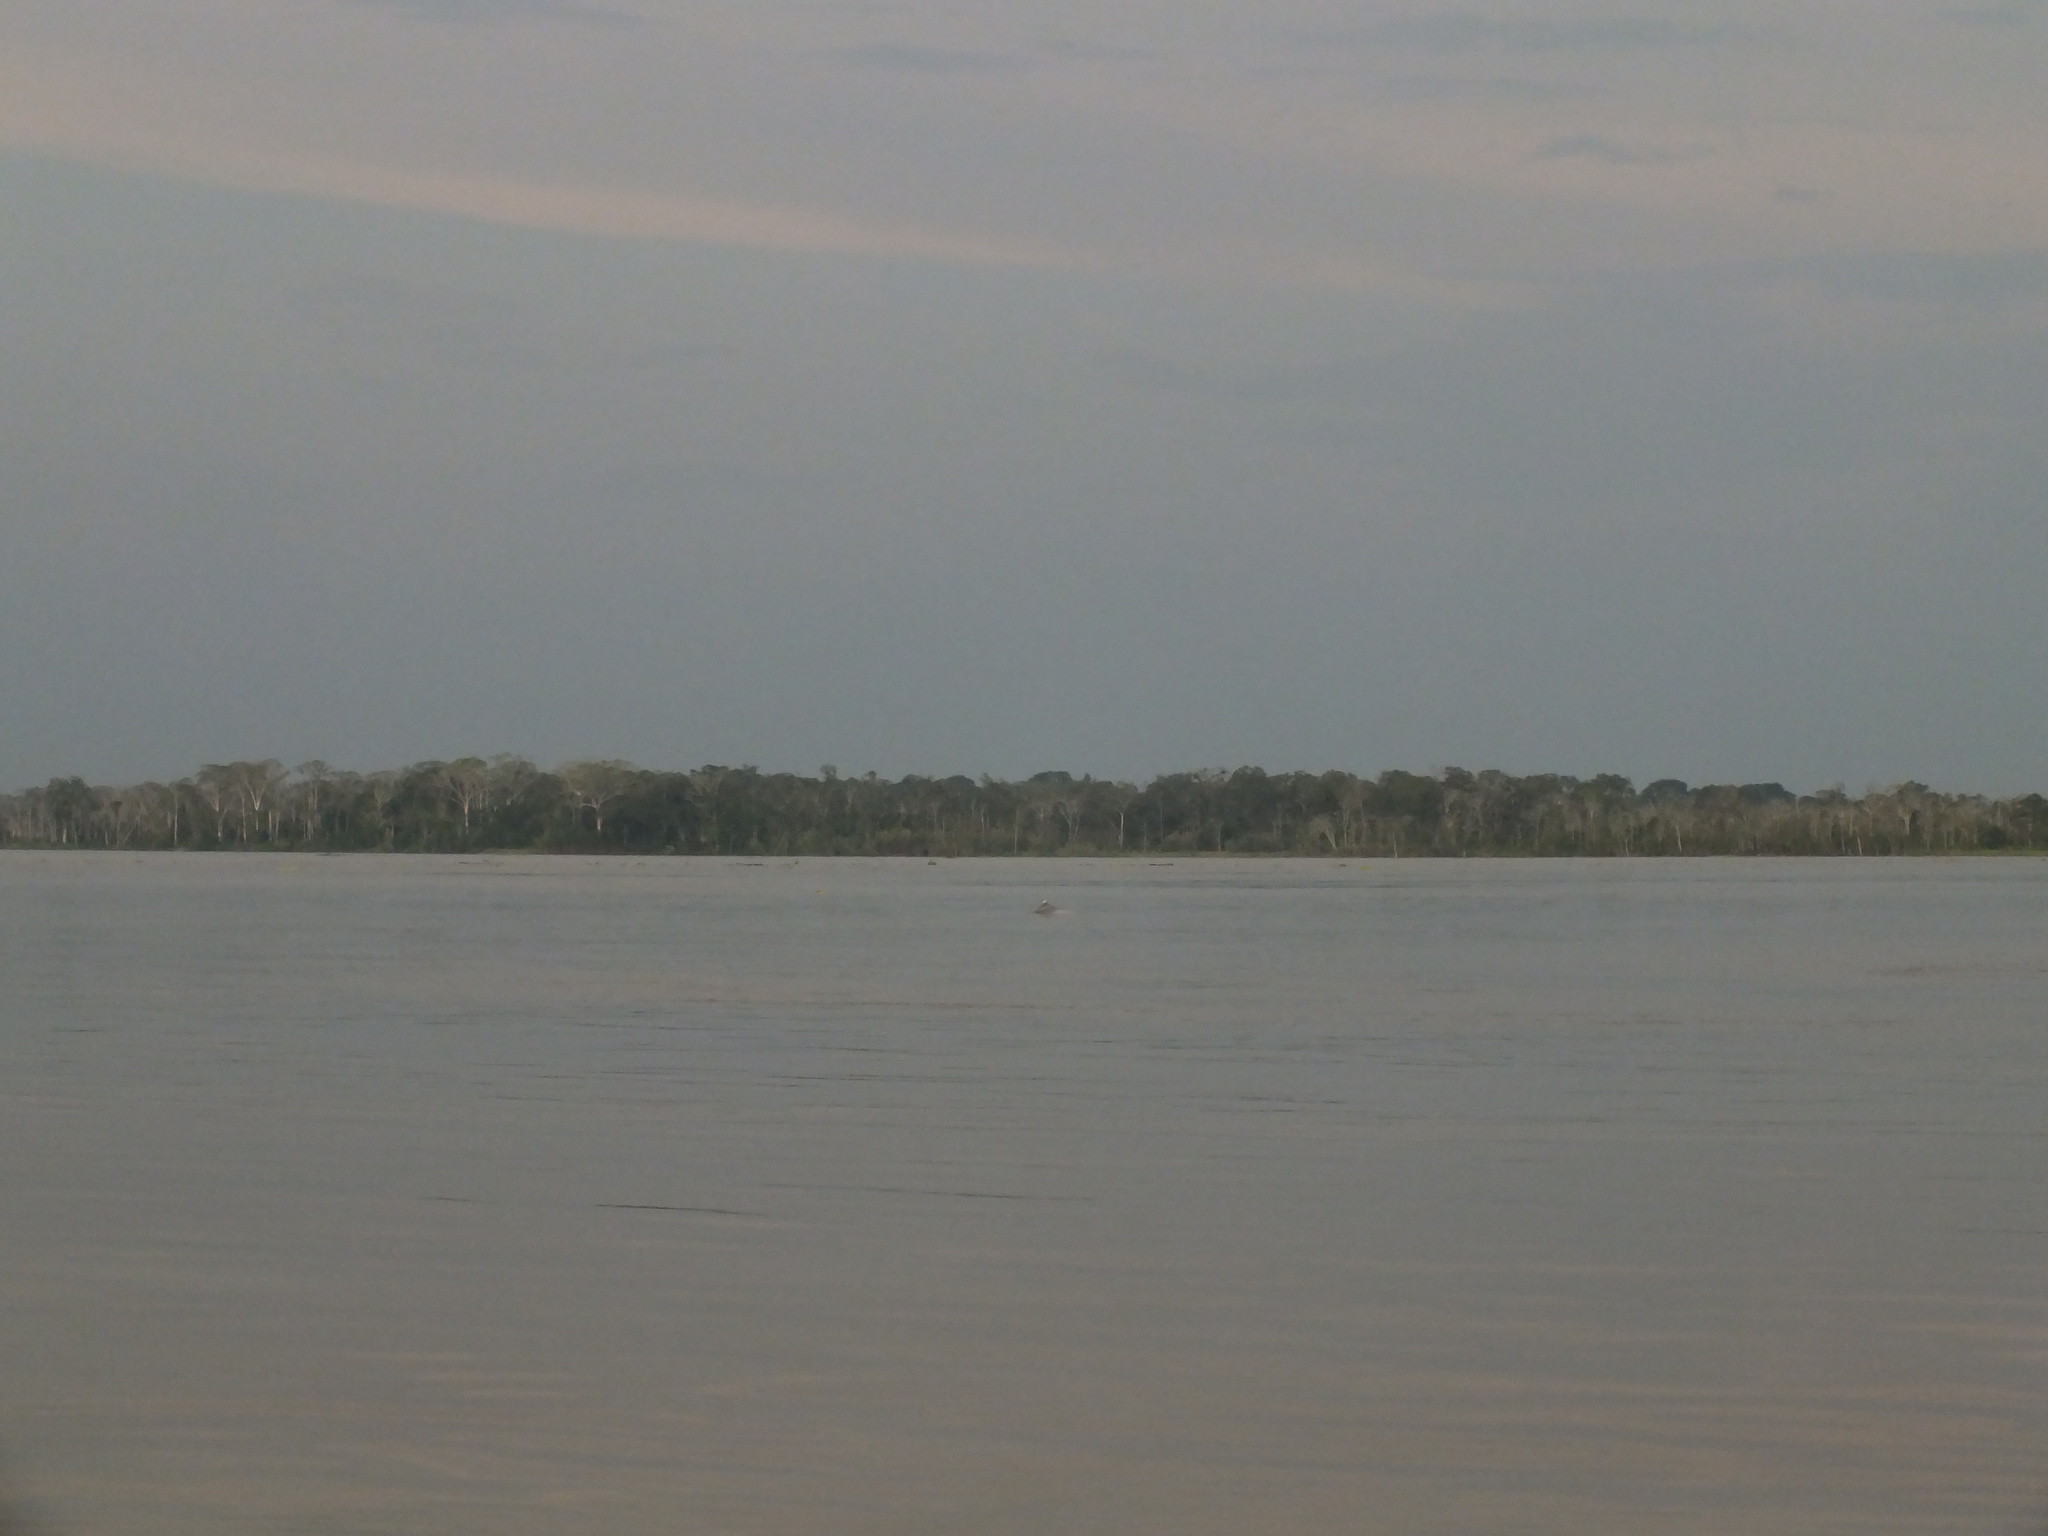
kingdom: Animalia
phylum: Chordata
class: Mammalia
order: Cetacea
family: Delphinidae
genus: Sotalia
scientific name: Sotalia fluviatilis
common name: Tucuxi
